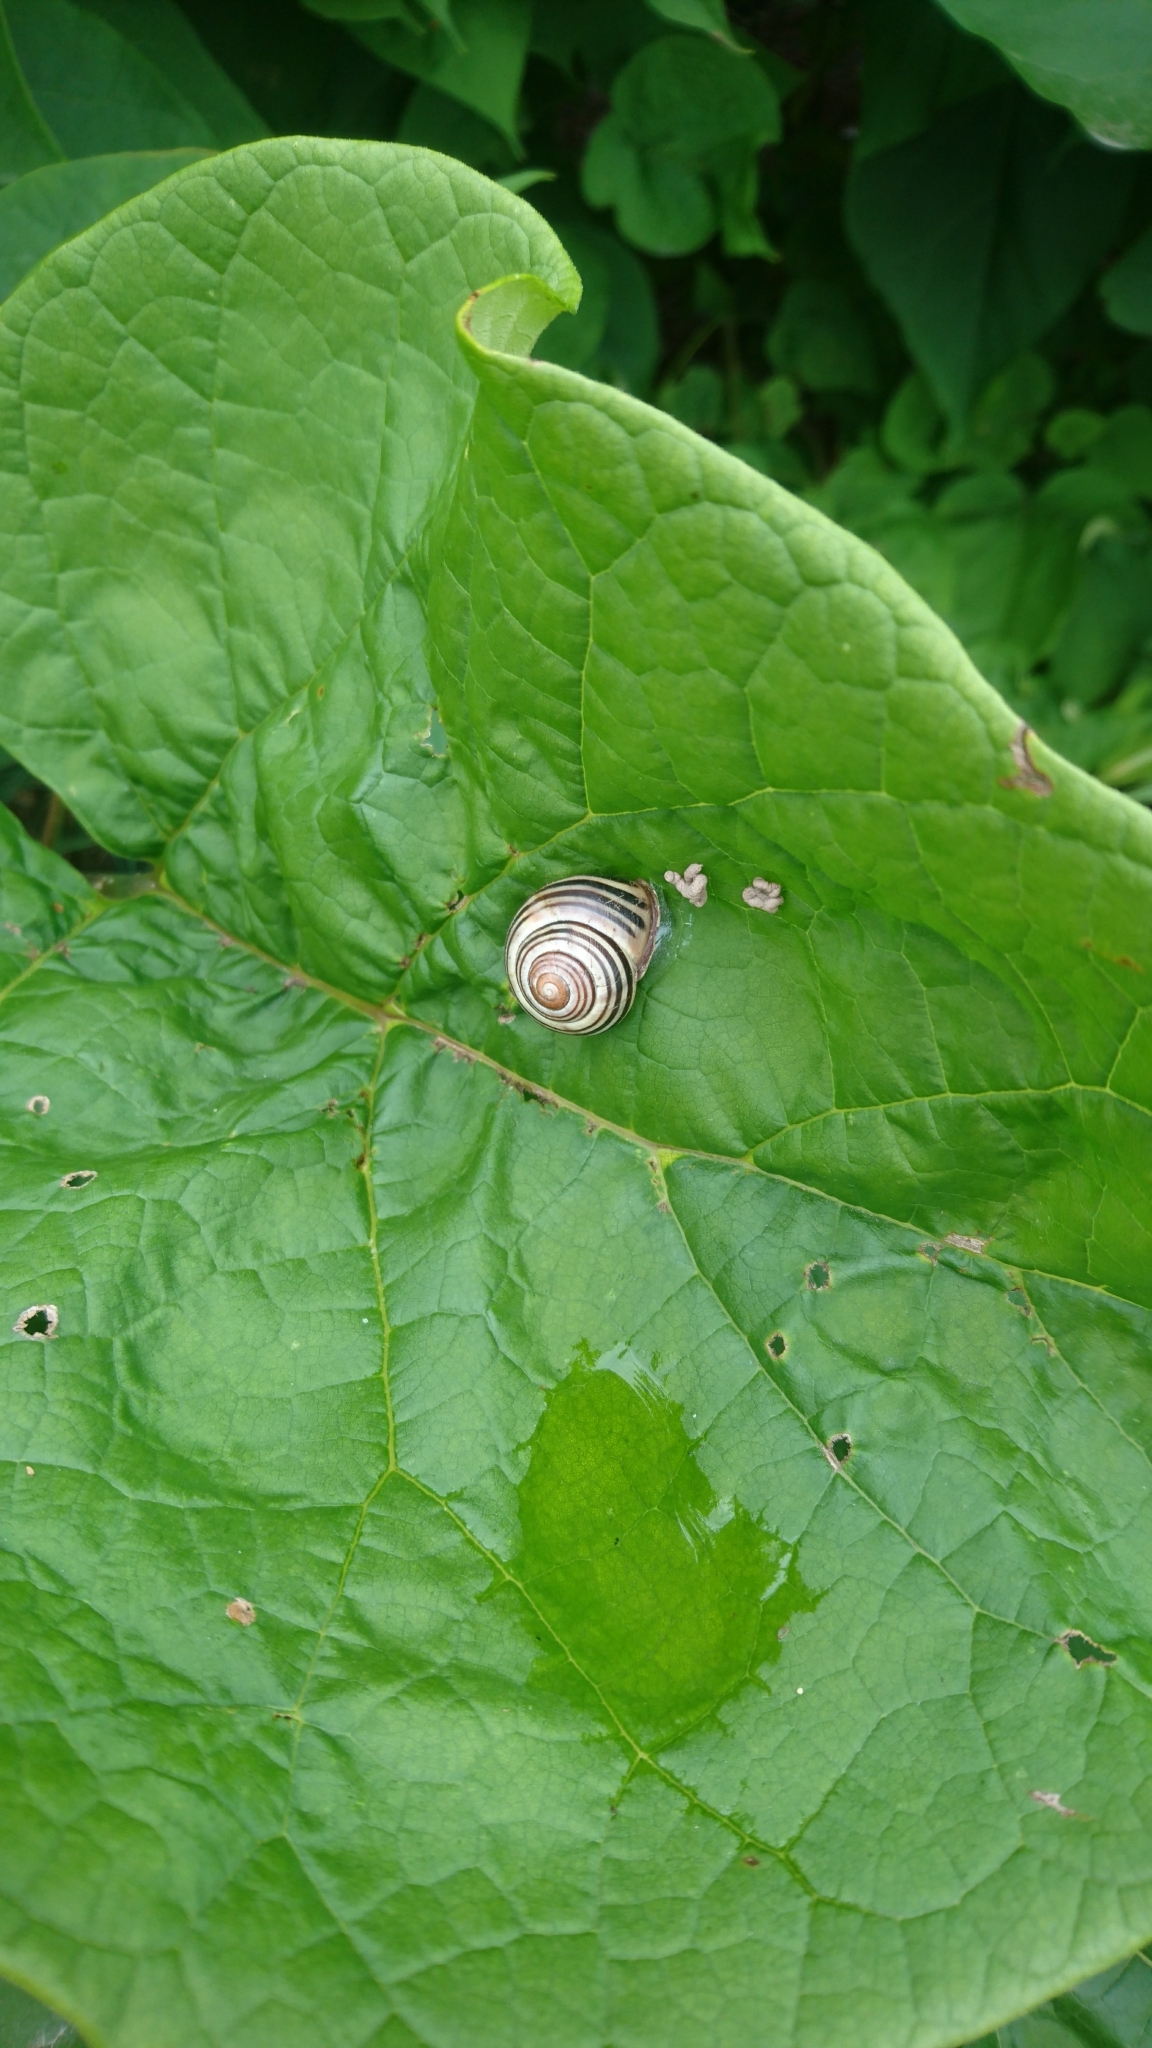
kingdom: Animalia
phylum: Mollusca
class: Gastropoda
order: Stylommatophora
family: Helicidae
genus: Cepaea
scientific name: Cepaea nemoralis
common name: Grovesnail
